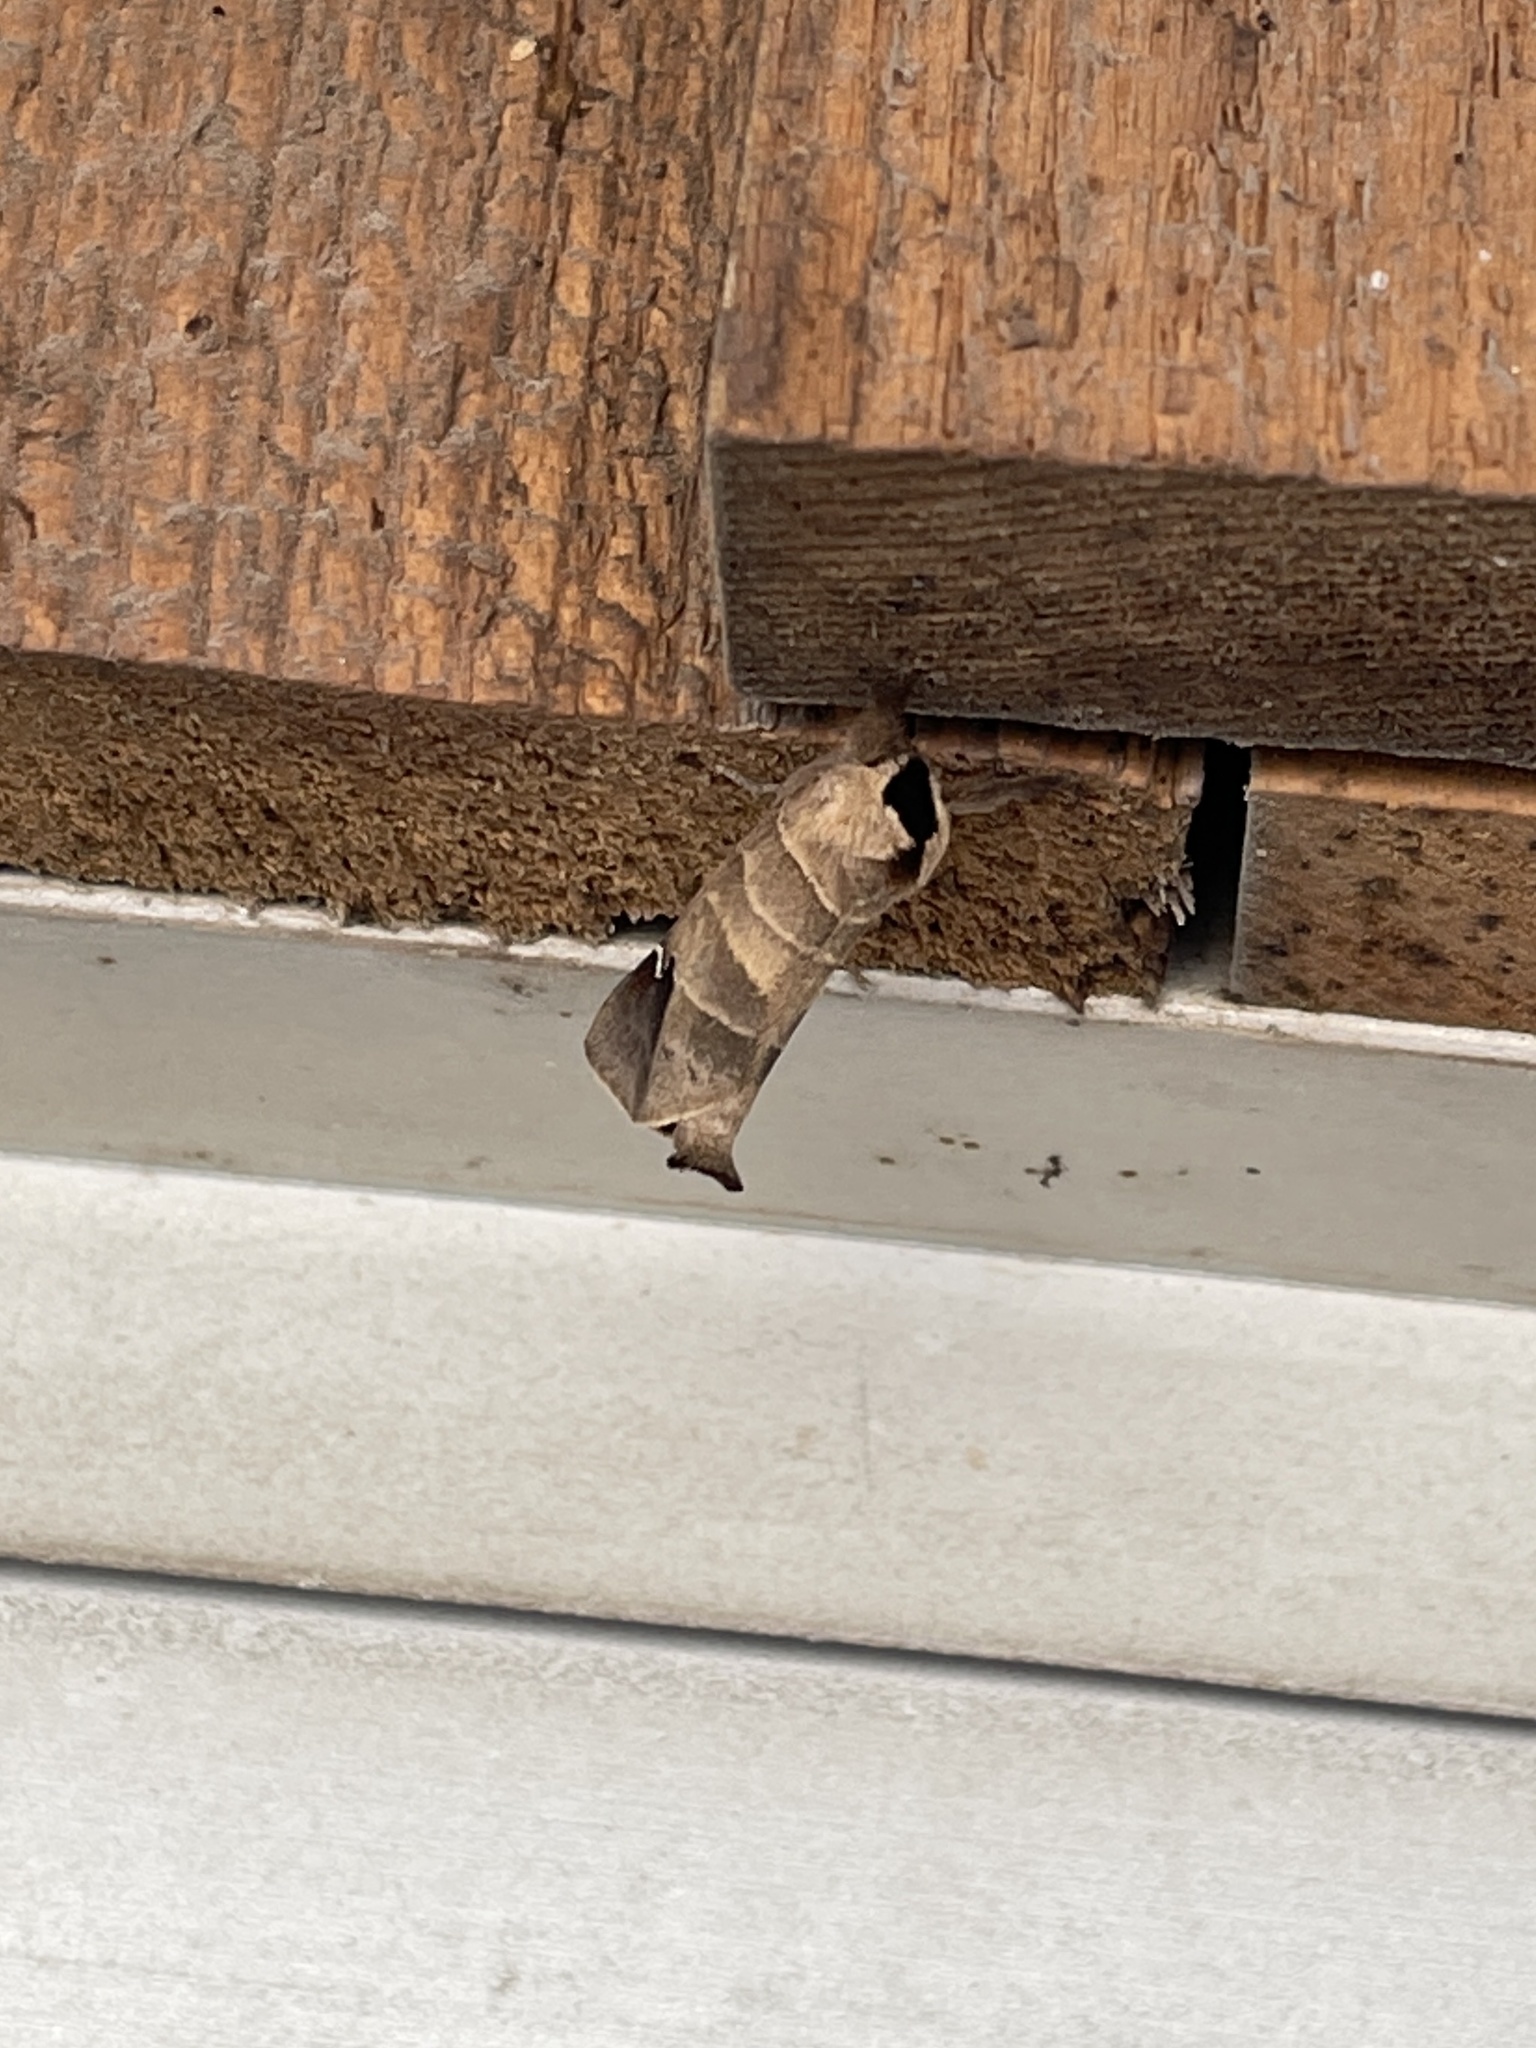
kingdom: Animalia
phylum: Arthropoda
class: Insecta
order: Lepidoptera
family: Notodontidae
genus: Clostera
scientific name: Clostera albosigma
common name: Sigmoid prominent
